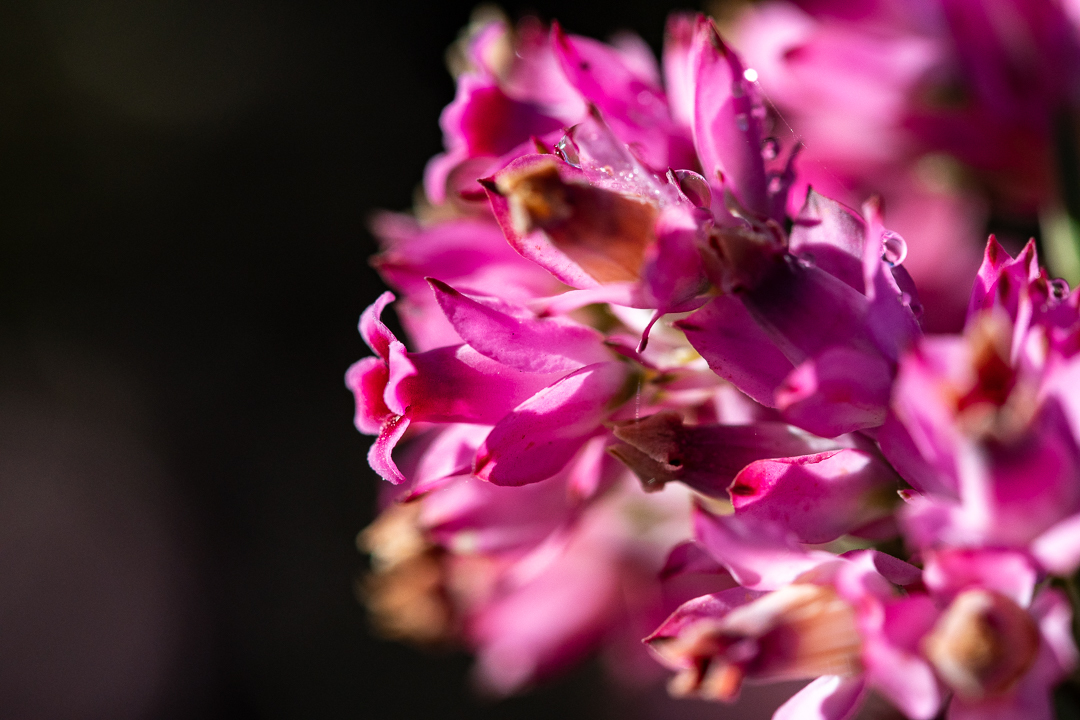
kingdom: Plantae
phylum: Tracheophyta
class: Magnoliopsida
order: Ericales
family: Ericaceae
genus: Erica
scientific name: Erica corifolia
